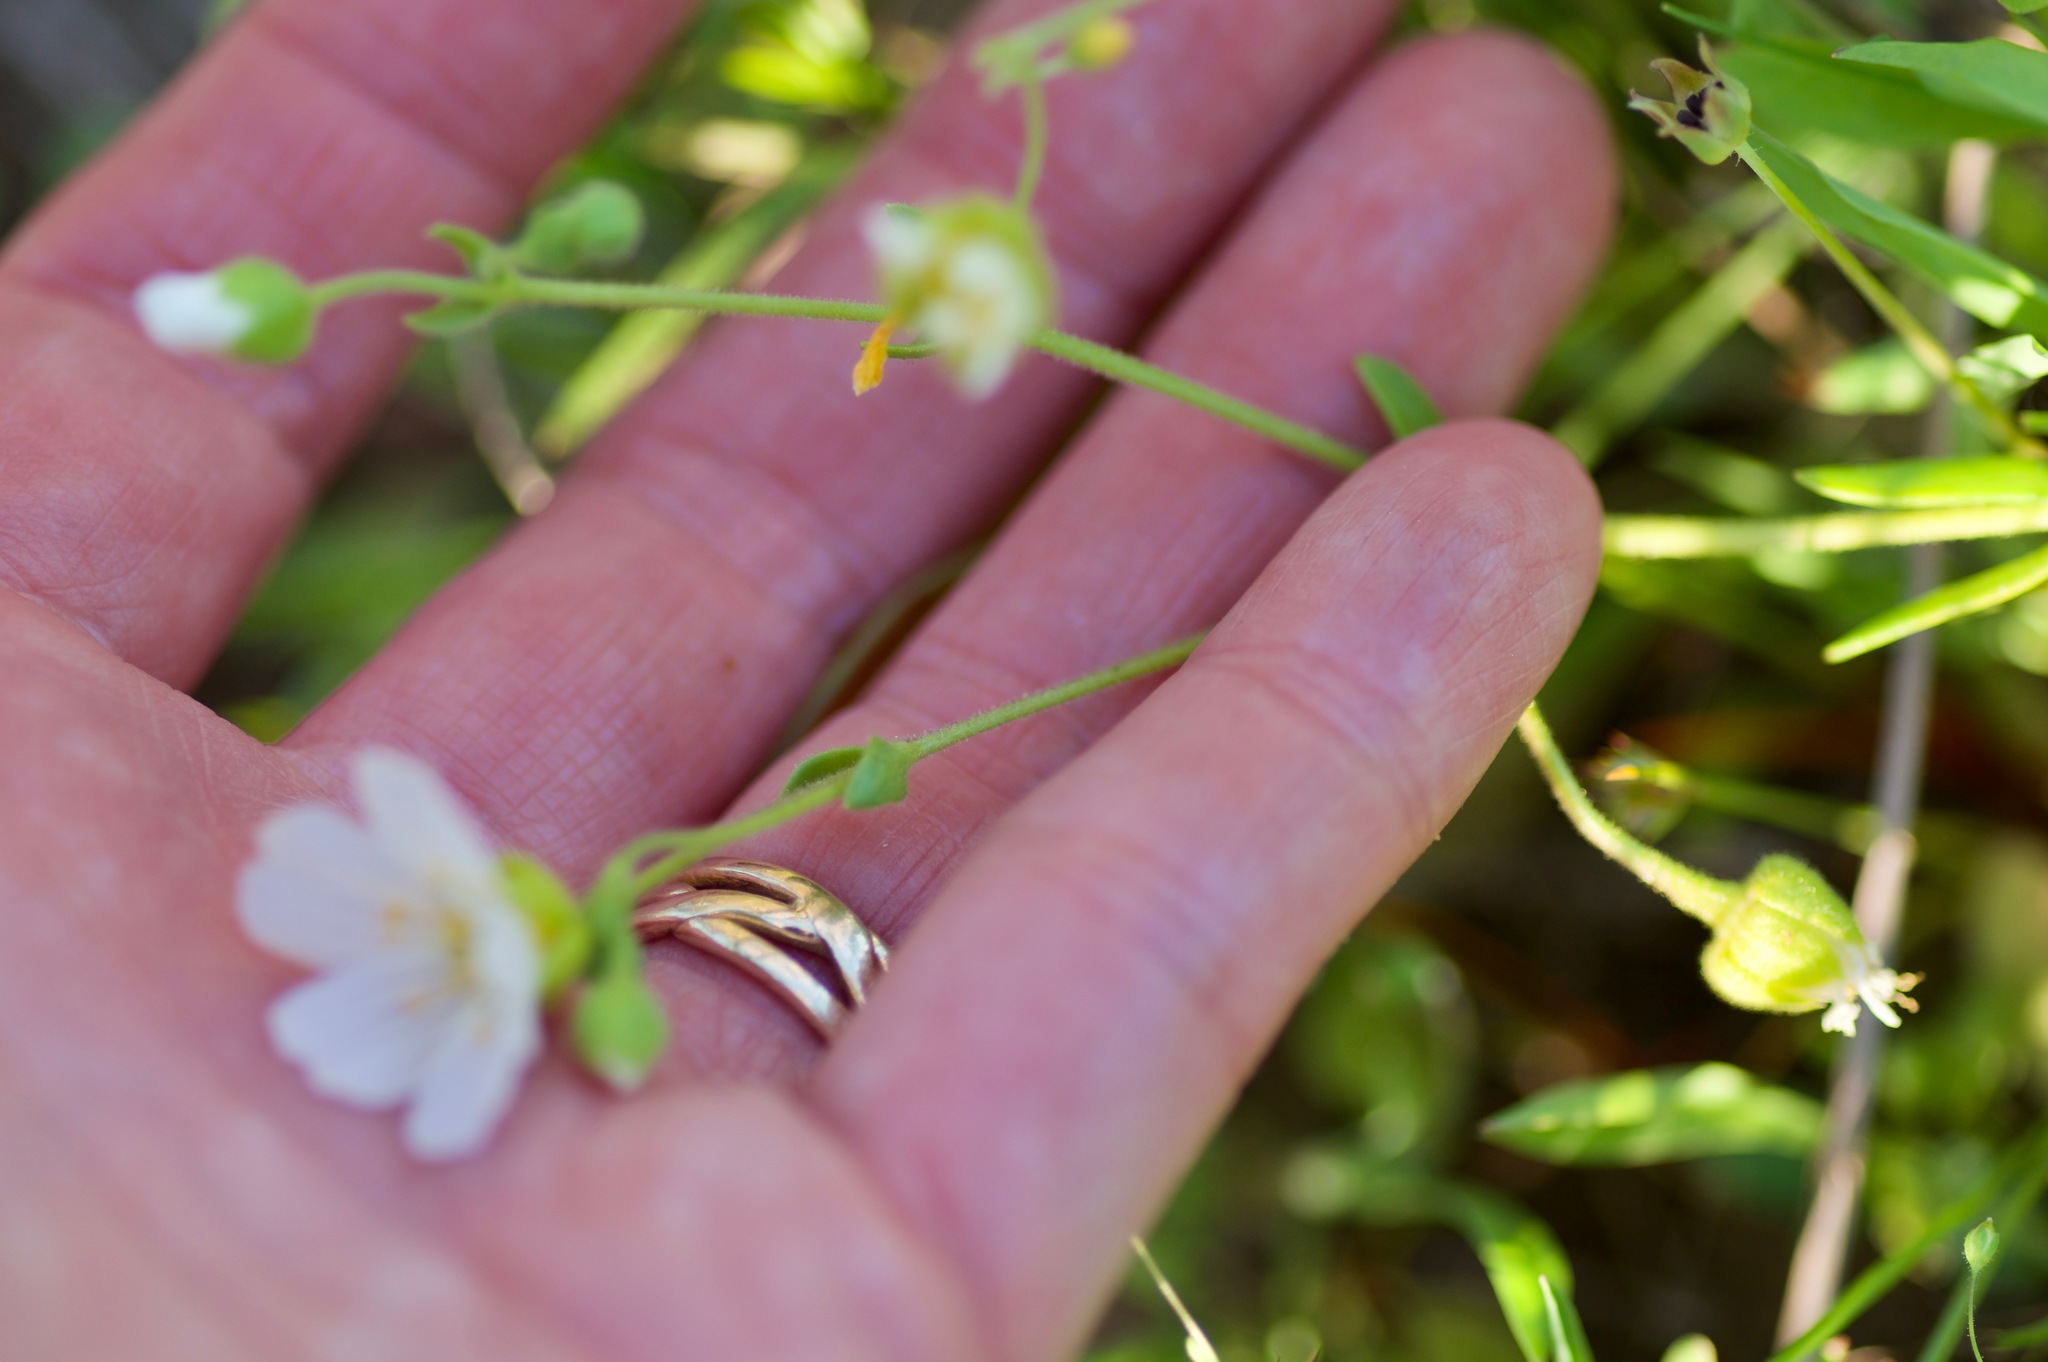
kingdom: Plantae
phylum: Tracheophyta
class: Magnoliopsida
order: Caryophyllales
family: Caryophyllaceae
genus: Geocarpon
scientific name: Geocarpon nuttallii
